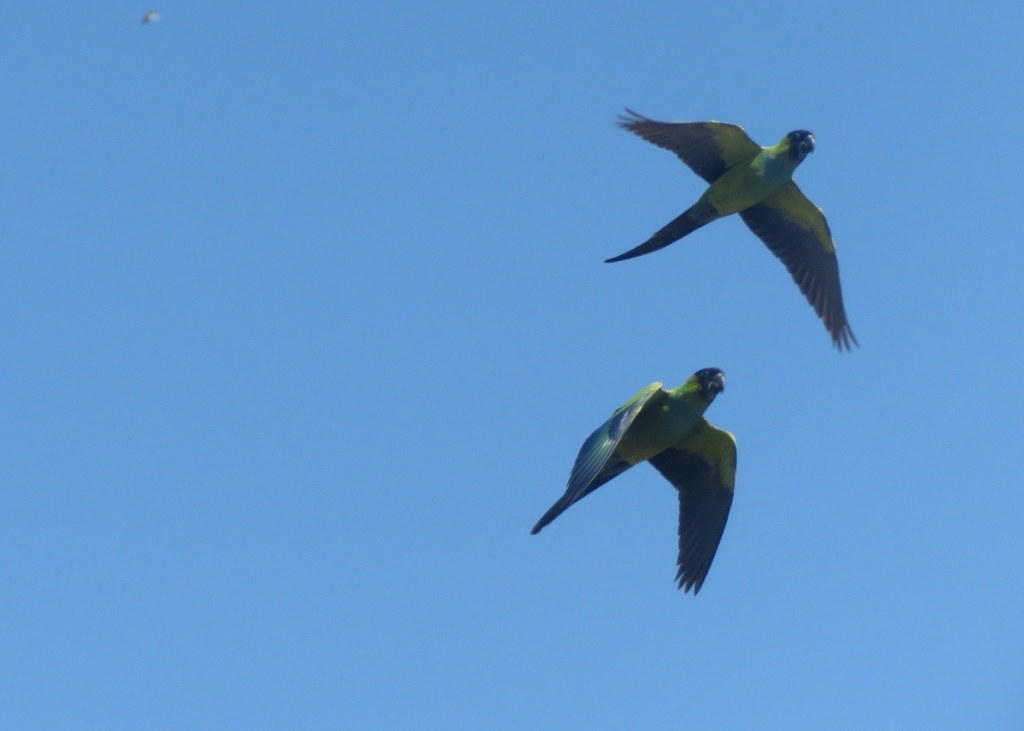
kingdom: Animalia
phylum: Chordata
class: Aves
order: Psittaciformes
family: Psittacidae
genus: Nandayus
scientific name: Nandayus nenday
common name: Nanday parakeet
